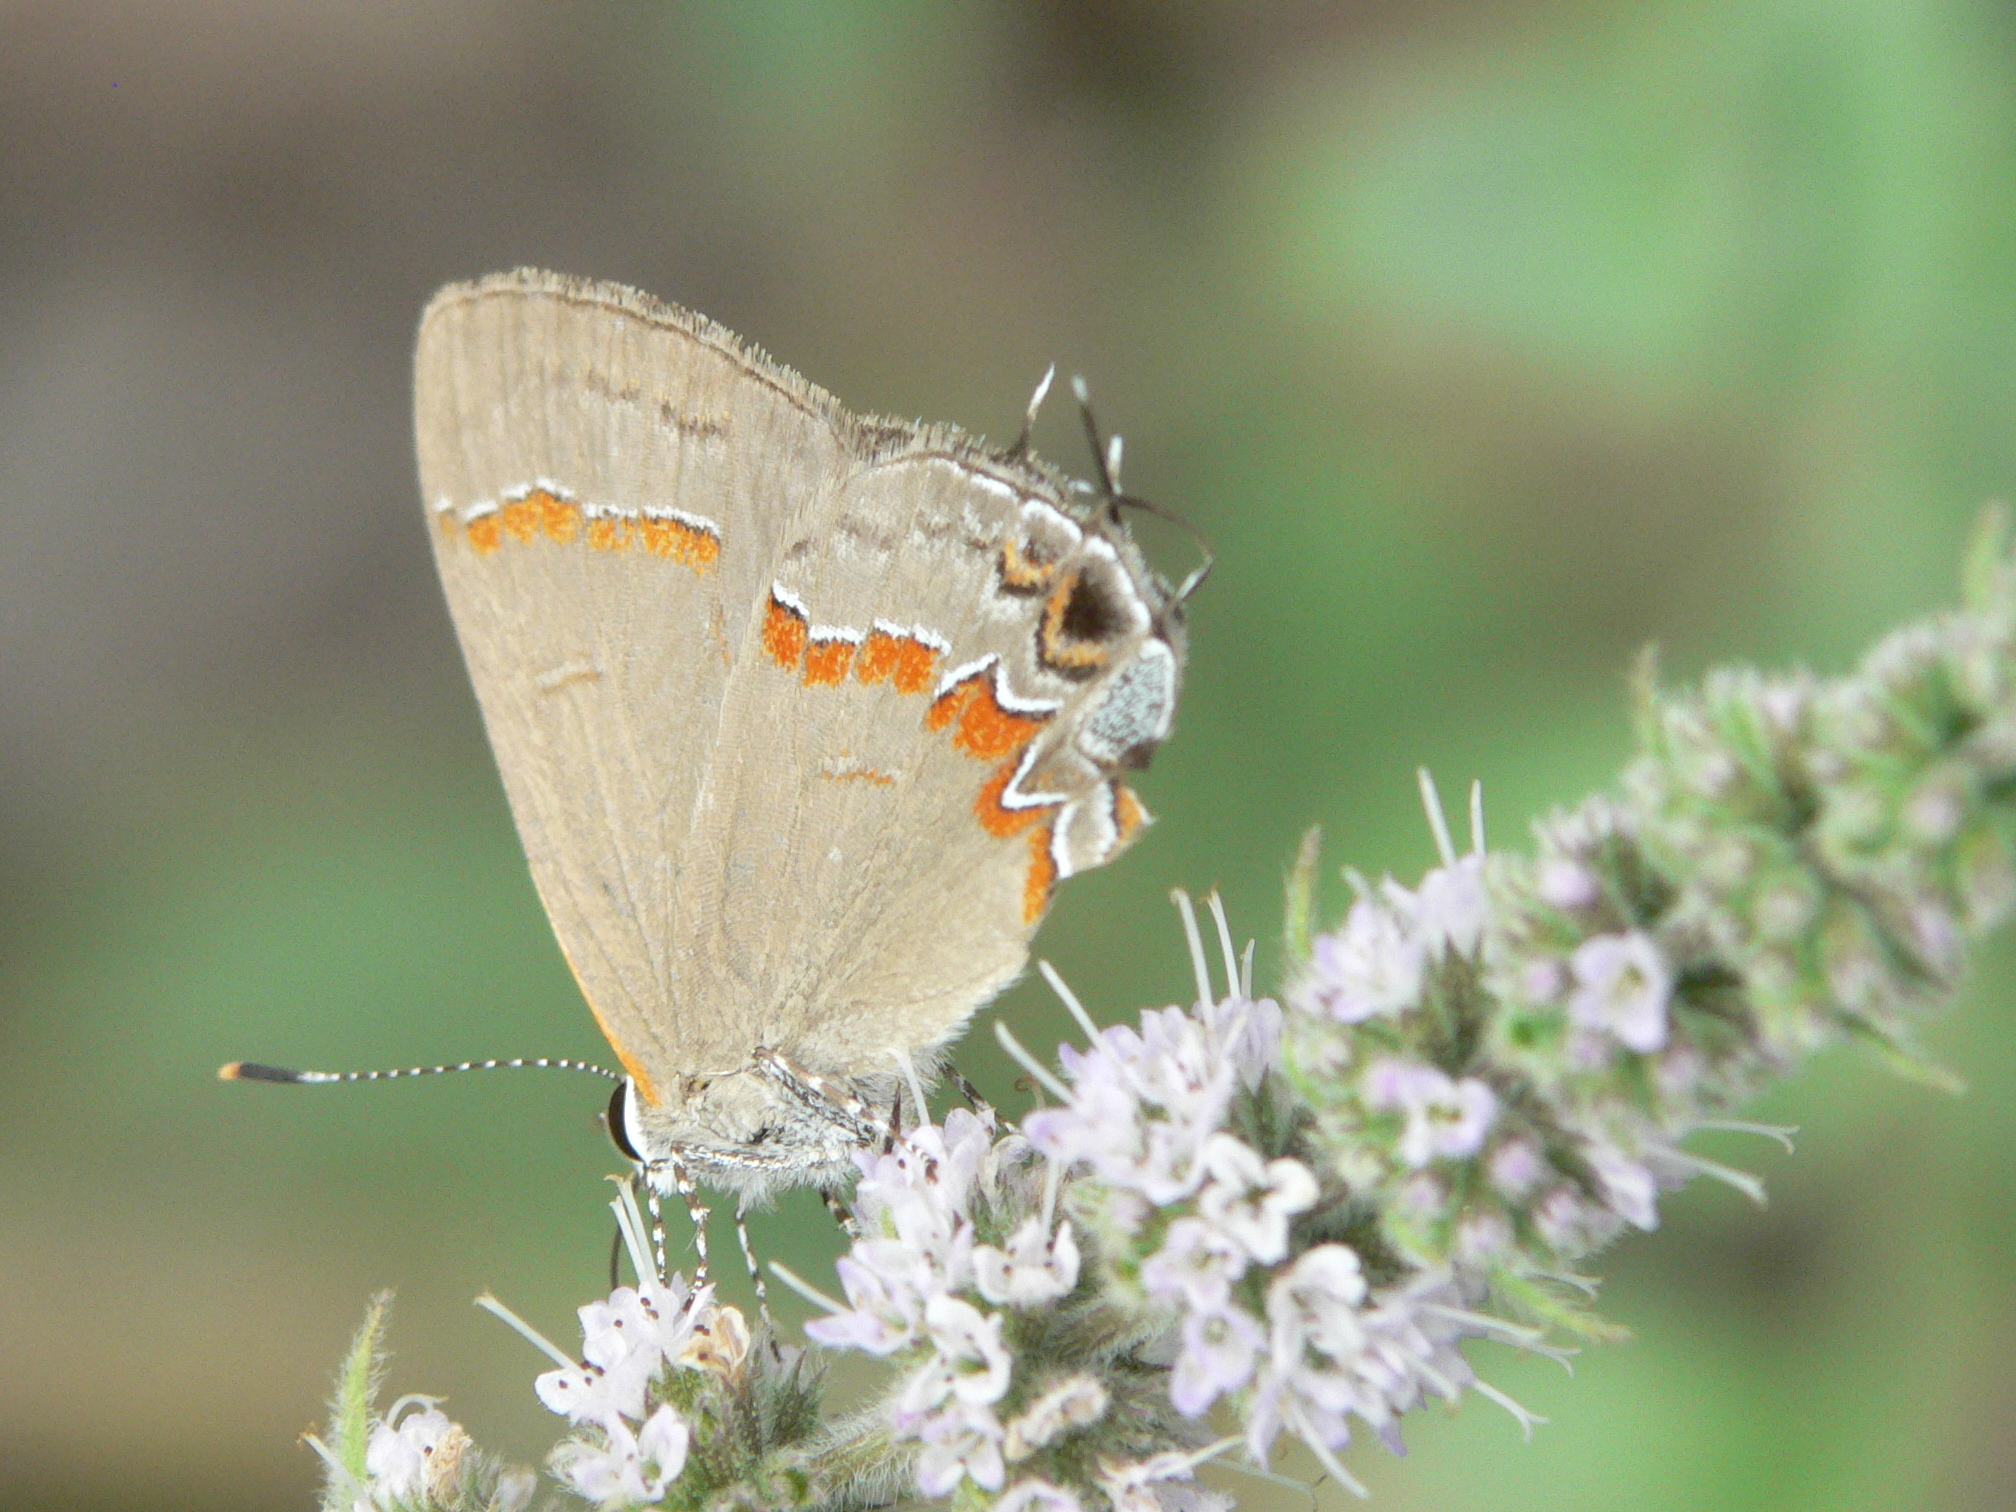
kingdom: Animalia
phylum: Arthropoda
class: Insecta
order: Lepidoptera
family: Lycaenidae
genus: Calycopis
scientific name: Calycopis cecrops
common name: Red-banded hairstreak
